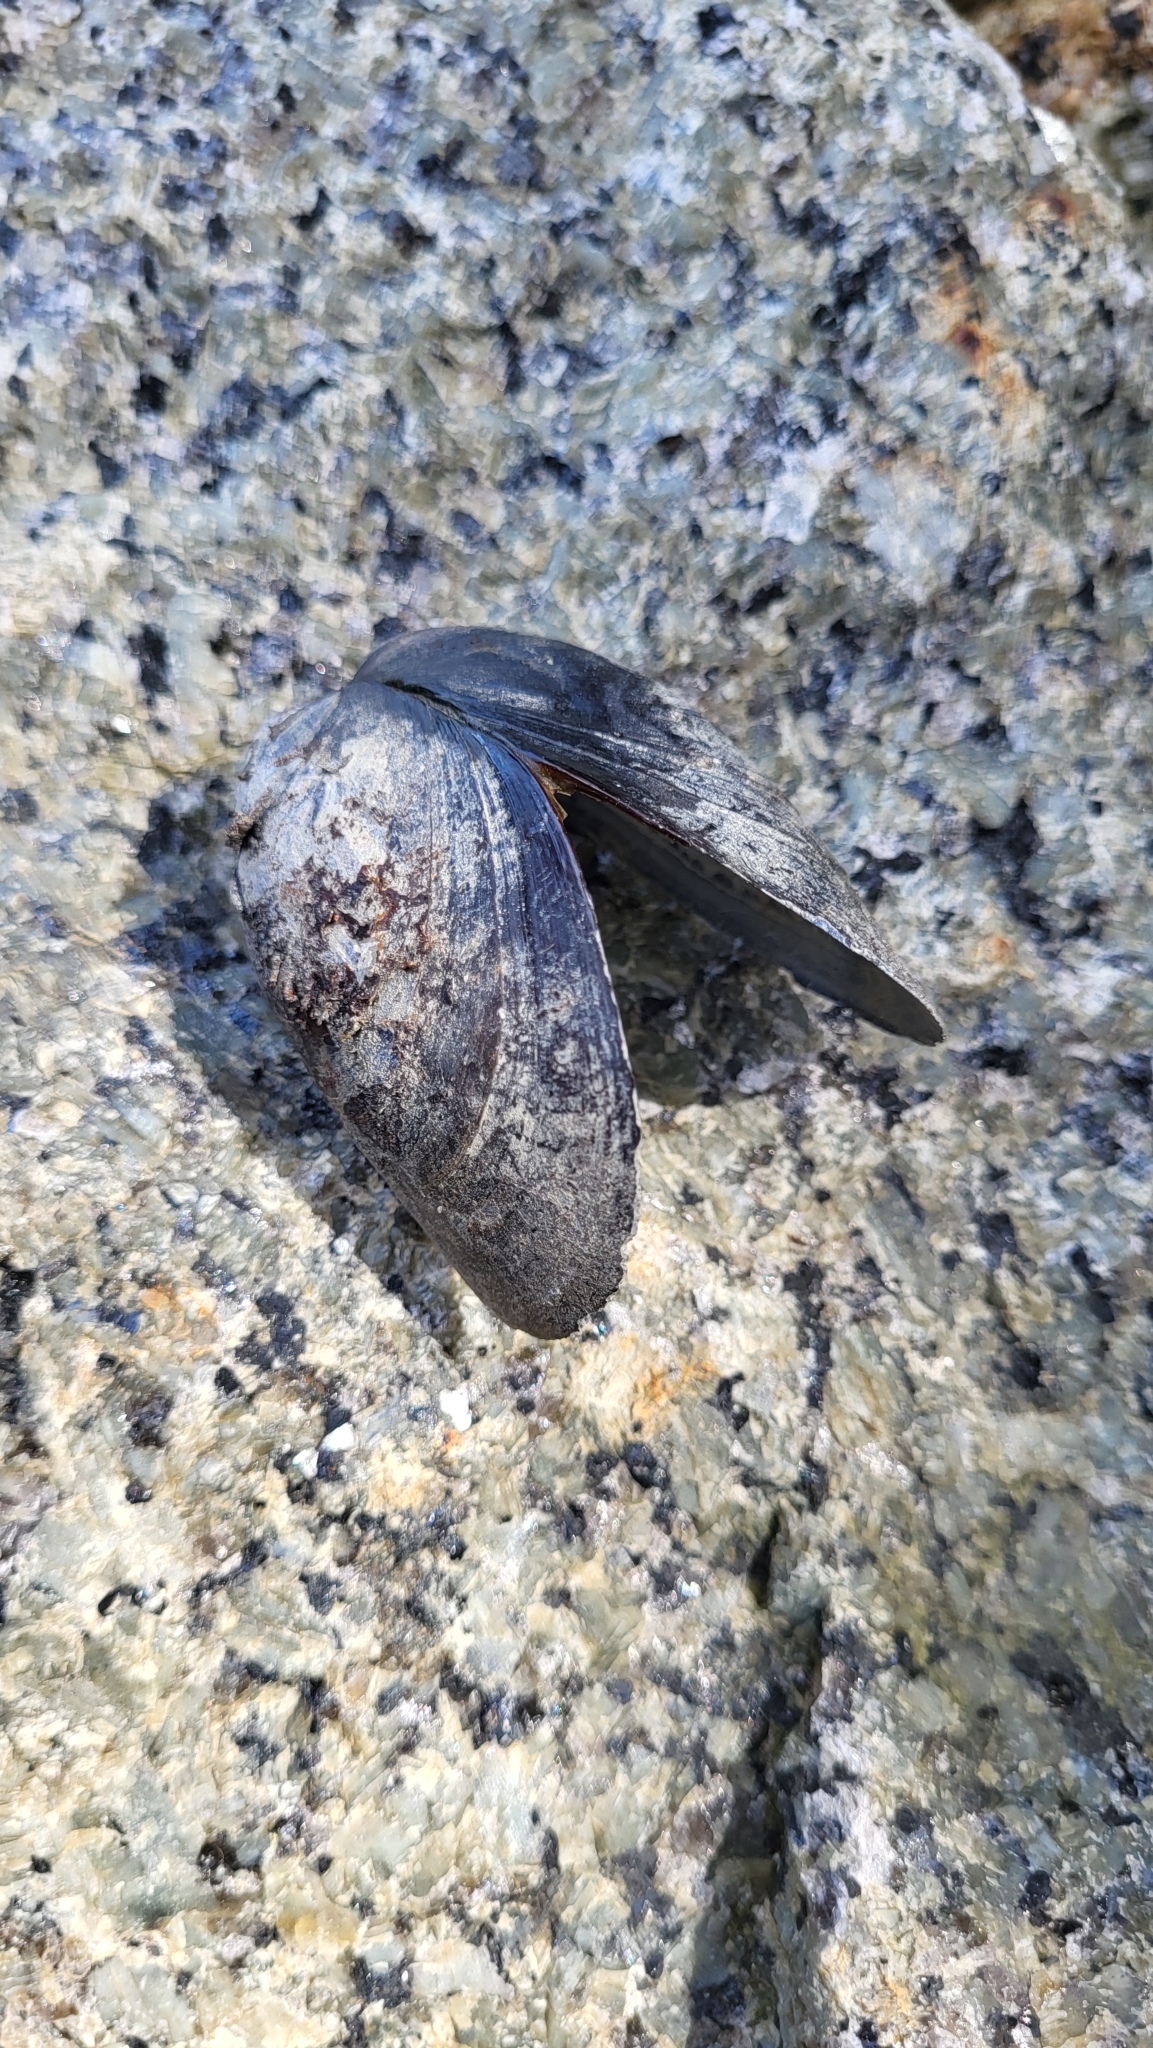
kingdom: Animalia
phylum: Mollusca
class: Bivalvia
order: Mytilida
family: Mytilidae
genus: Mytilus
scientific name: Mytilus edulis
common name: Blue mussel
